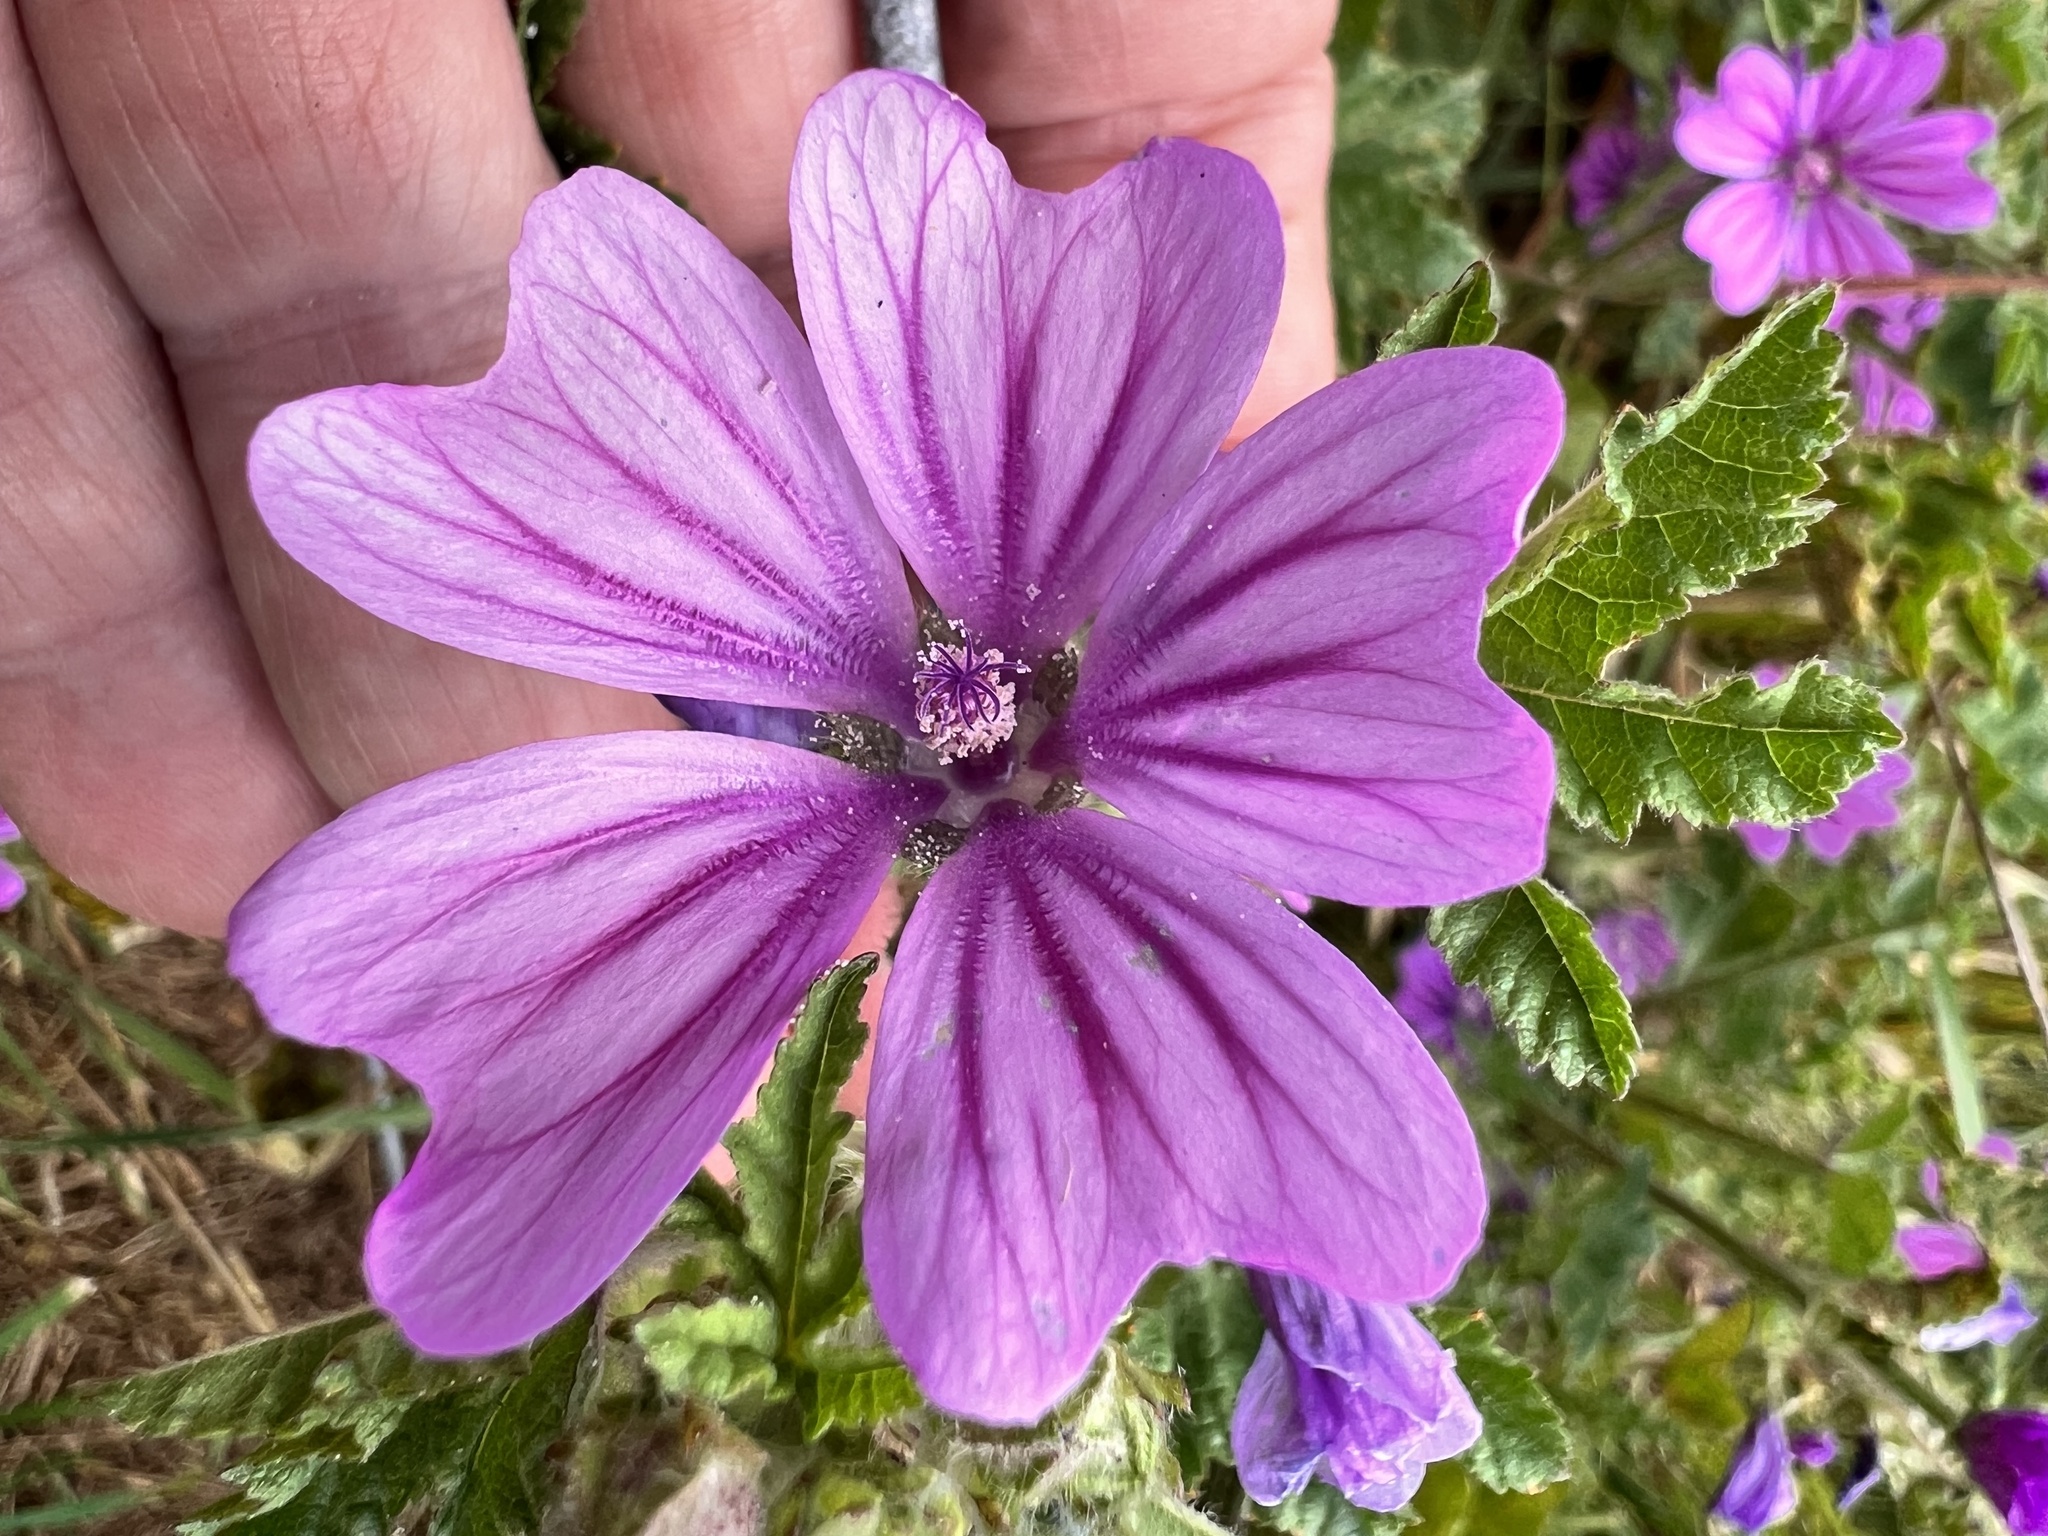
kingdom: Plantae
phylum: Tracheophyta
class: Magnoliopsida
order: Malvales
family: Malvaceae
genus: Malva
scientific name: Malva sylvestris
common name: Common mallow
